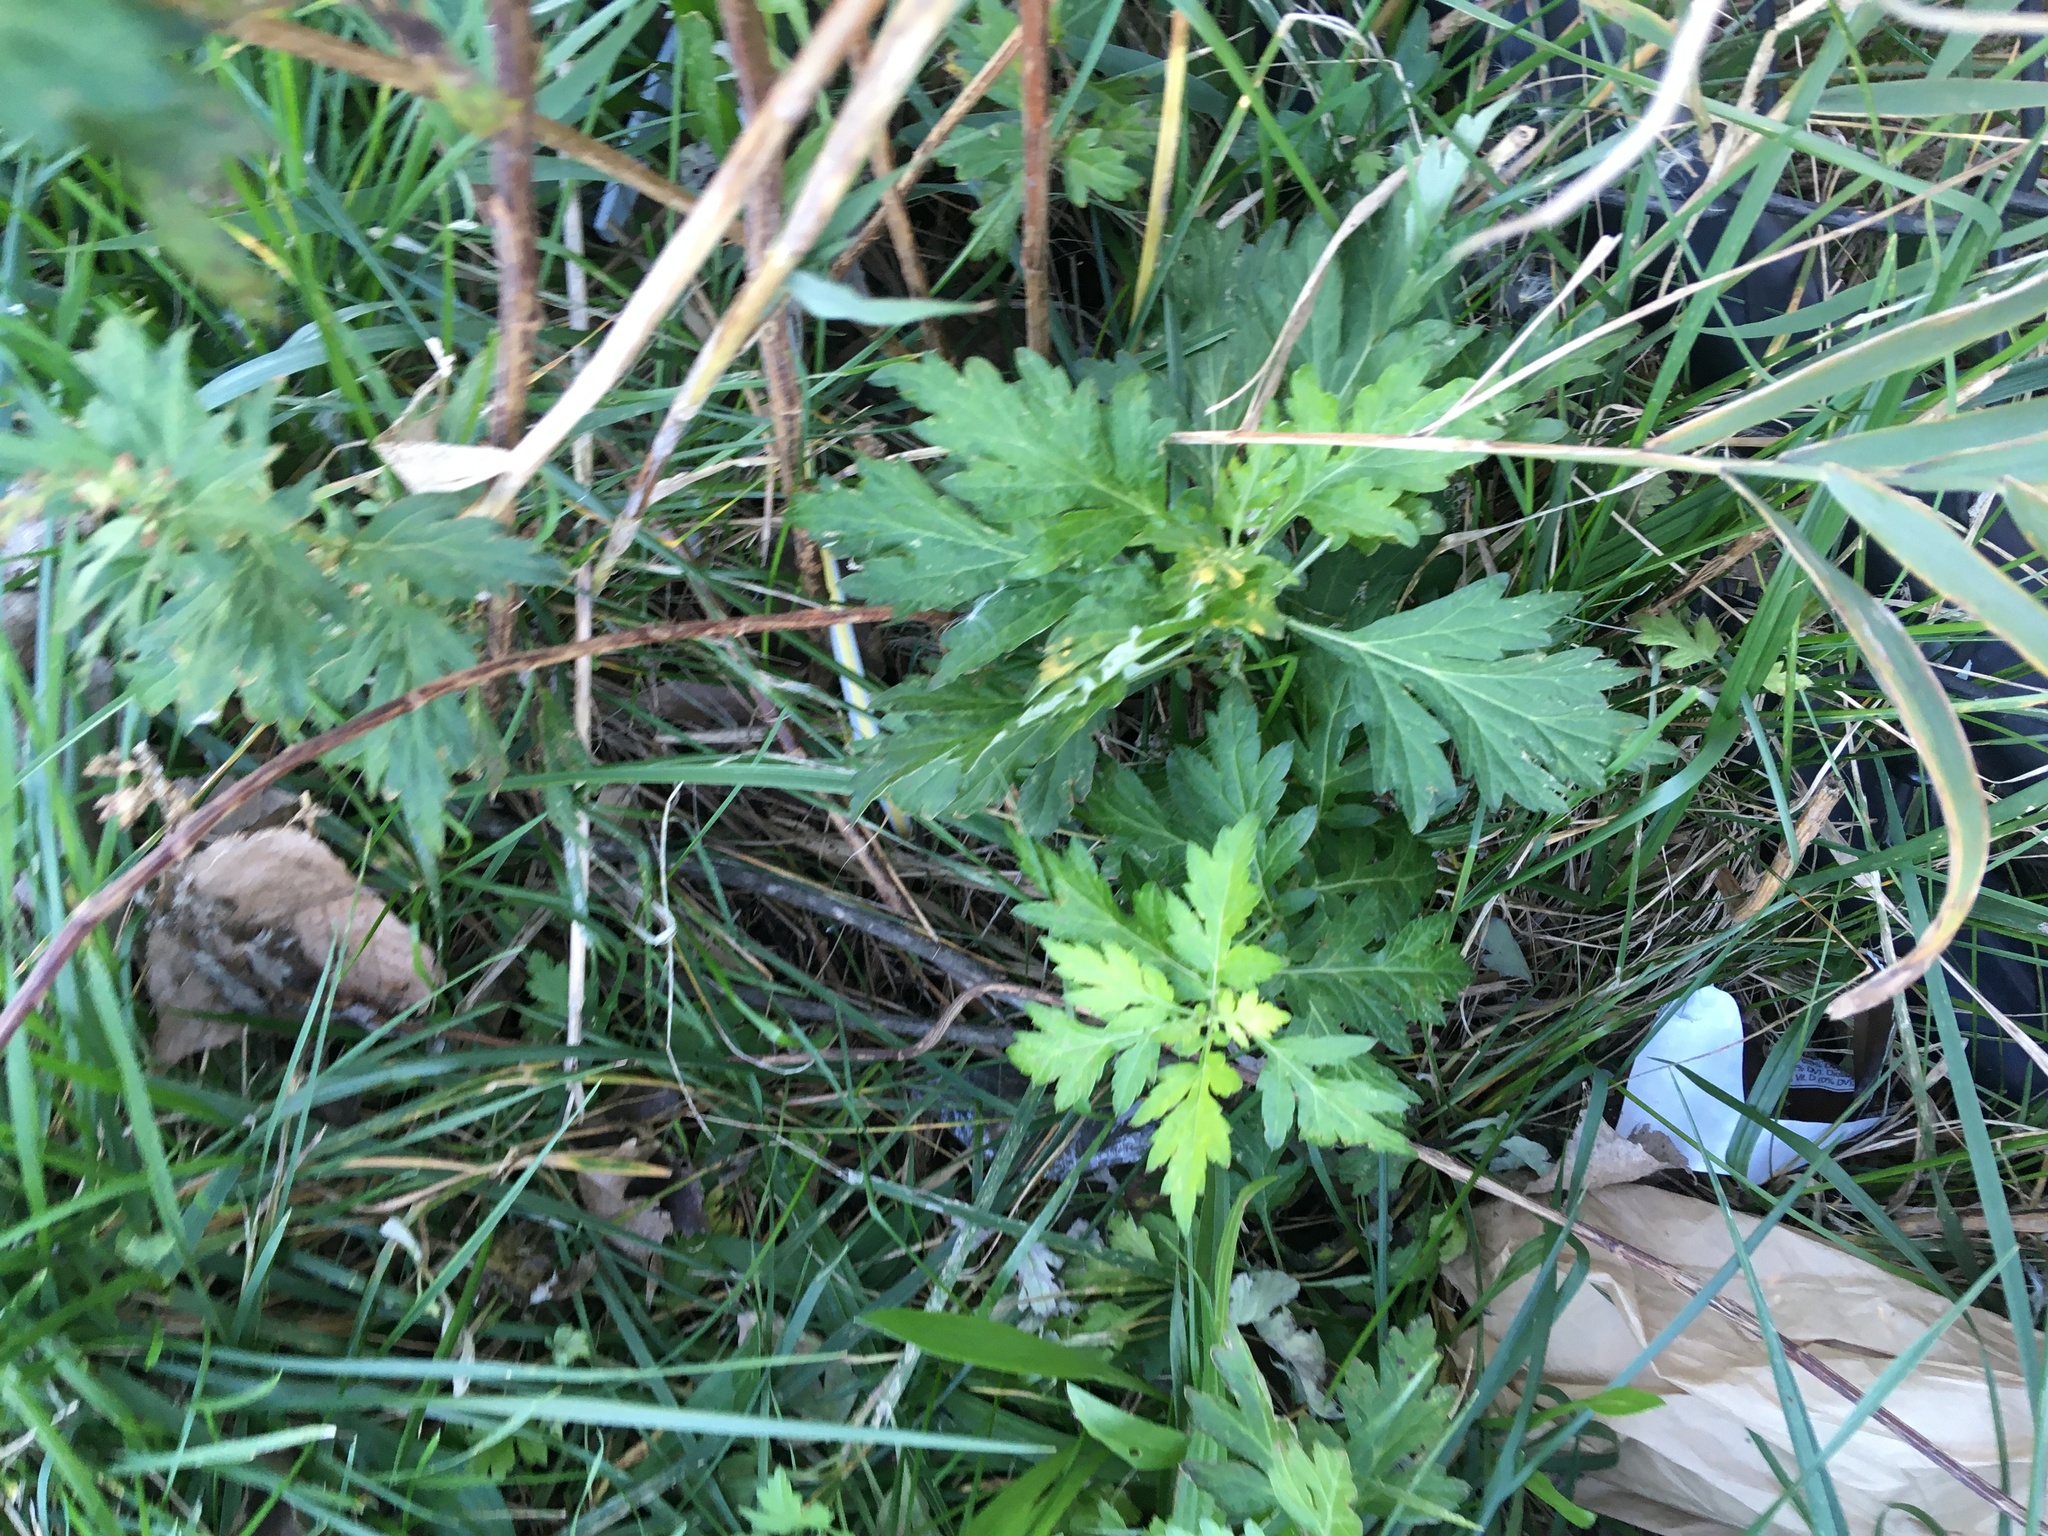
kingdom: Plantae
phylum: Tracheophyta
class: Magnoliopsida
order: Asterales
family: Asteraceae
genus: Artemisia
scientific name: Artemisia vulgaris
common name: Mugwort
